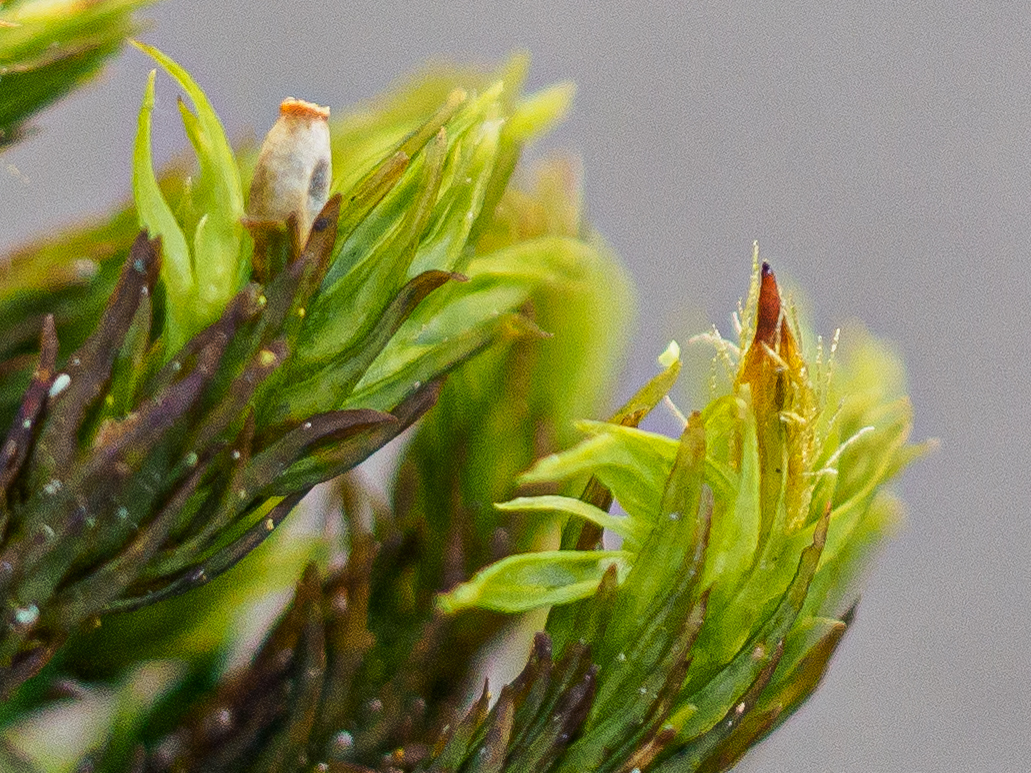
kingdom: Plantae
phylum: Bryophyta
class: Bryopsida
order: Orthotrichales
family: Orthotrichaceae
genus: Lewinskya
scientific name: Lewinskya speciosa
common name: Showy bristle moss
